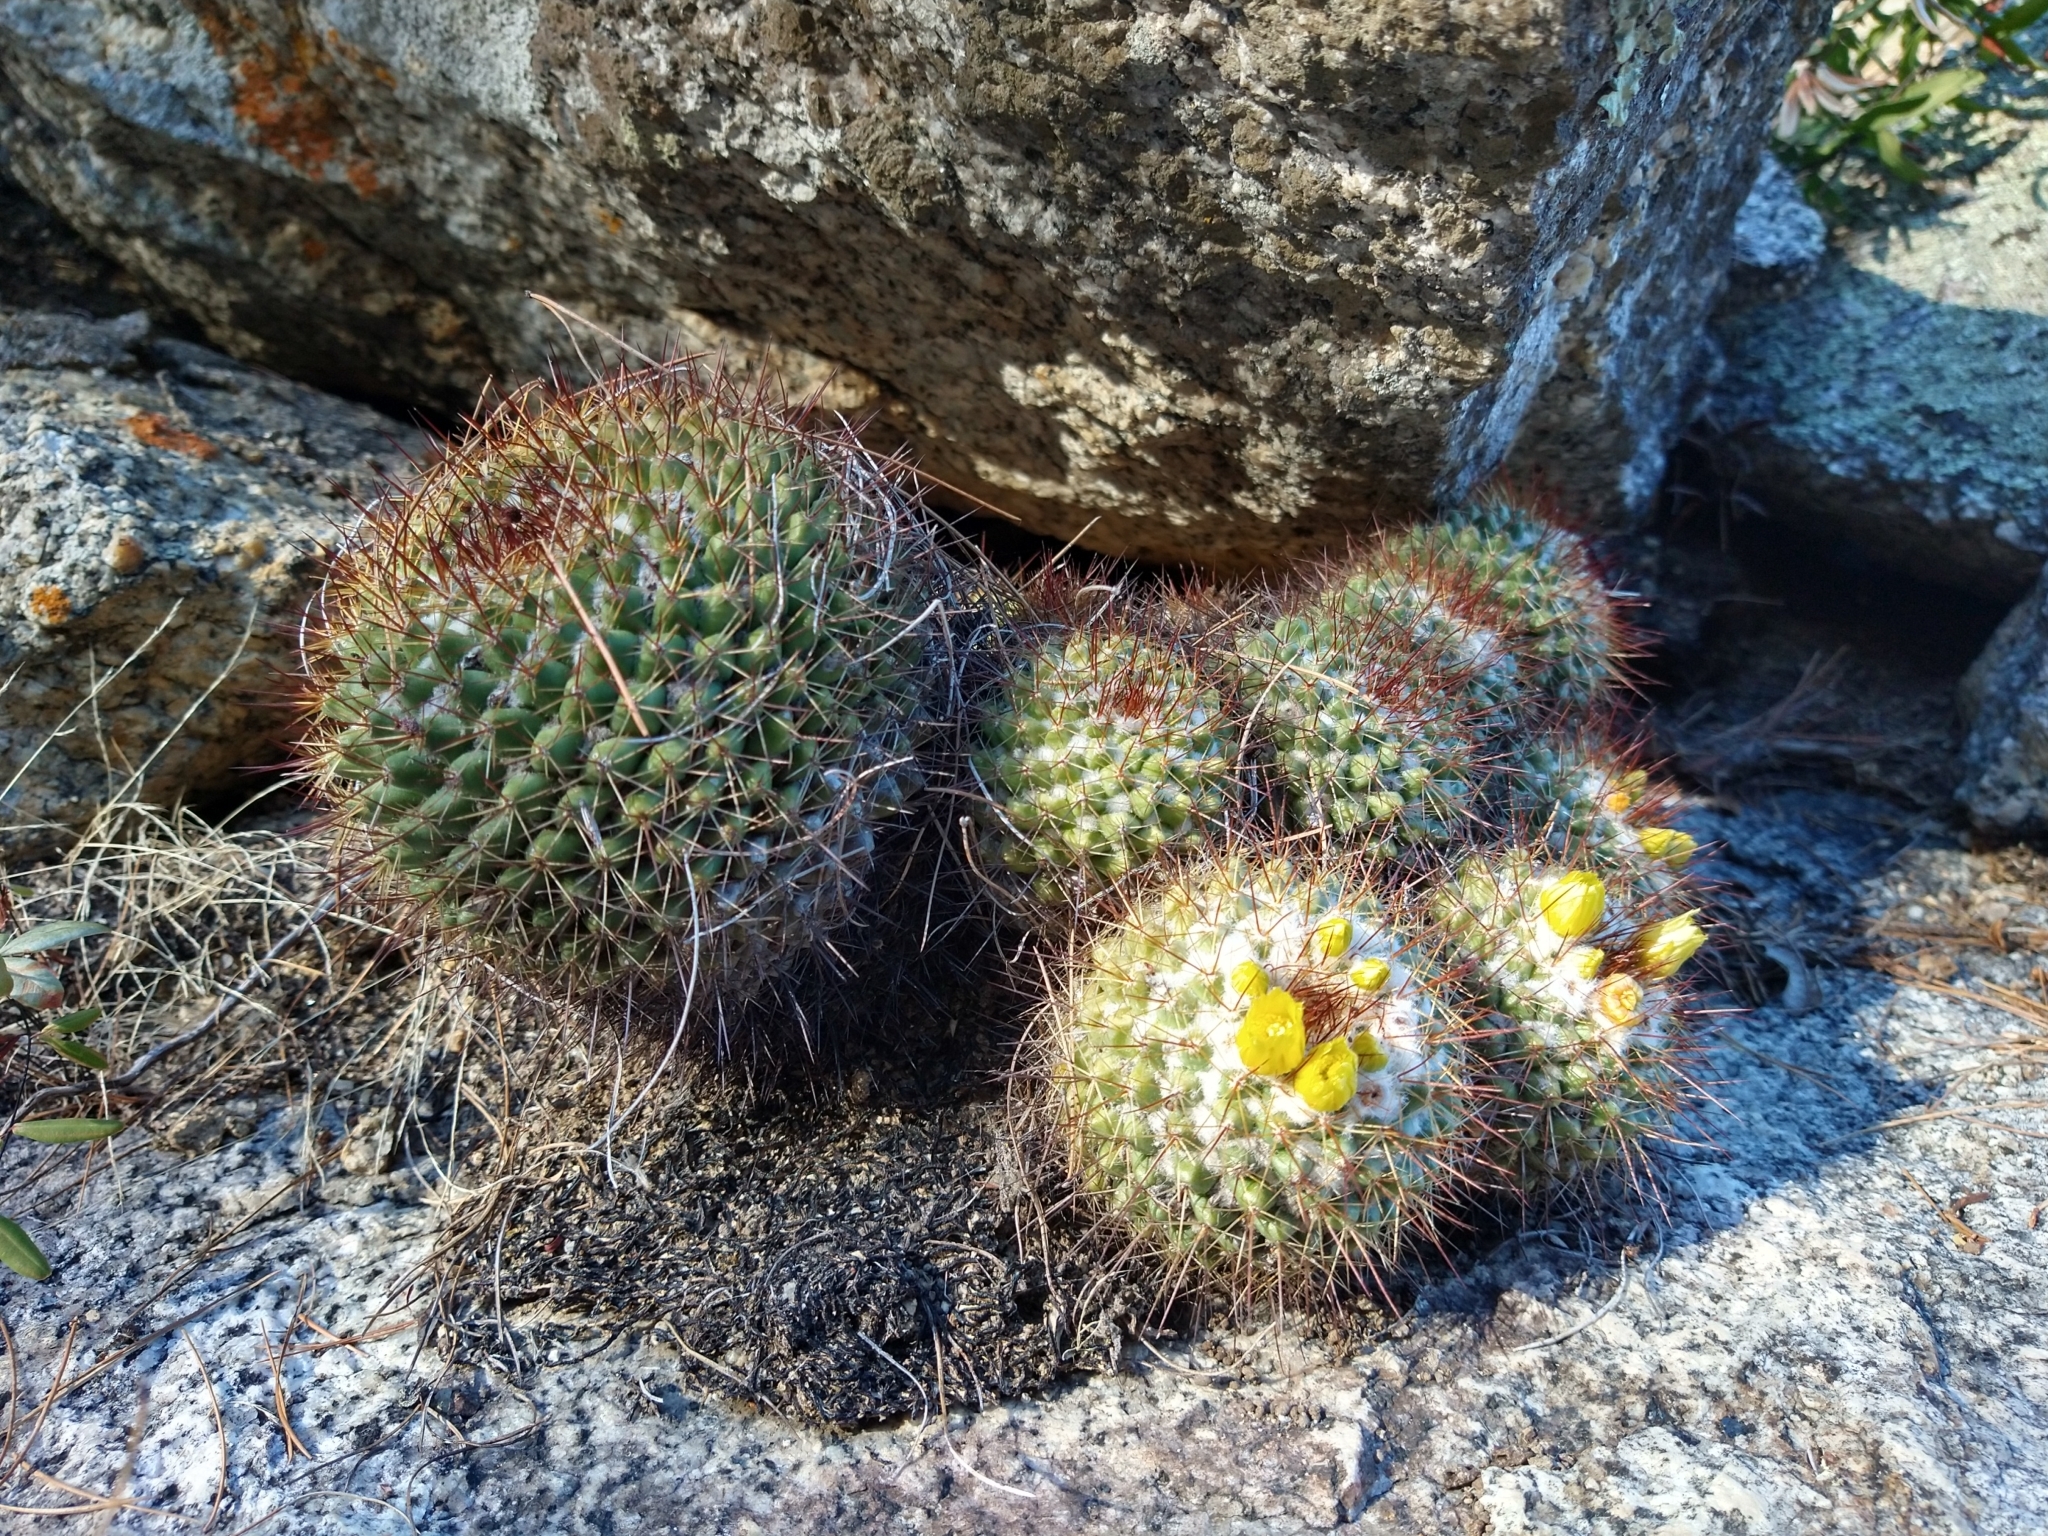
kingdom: Plantae
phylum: Tracheophyta
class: Magnoliopsida
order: Caryophyllales
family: Cactaceae
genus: Mammillaria
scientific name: Mammillaria petrophila
